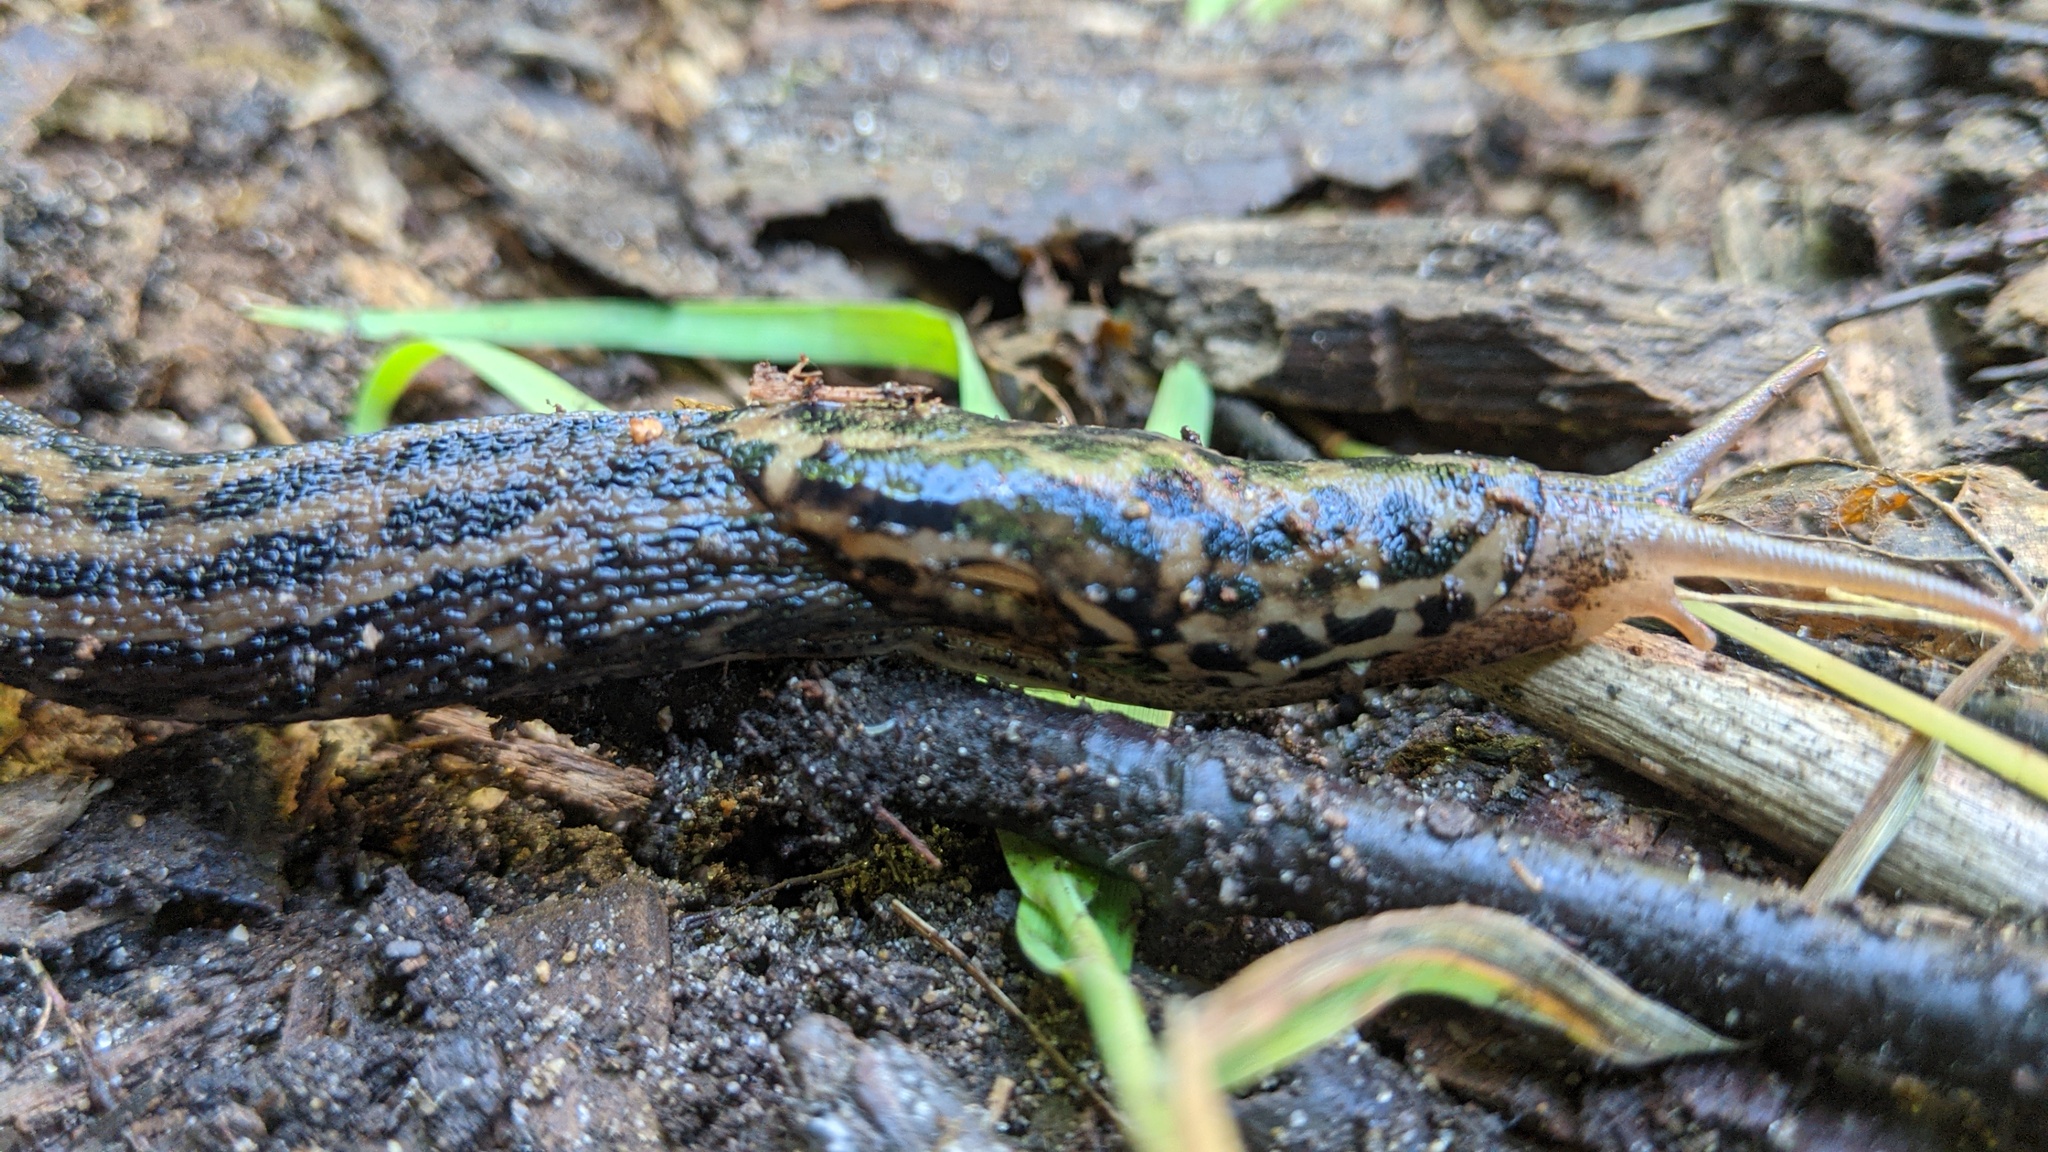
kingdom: Animalia
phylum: Mollusca
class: Gastropoda
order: Stylommatophora
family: Limacidae
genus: Limax
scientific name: Limax maximus
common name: Great grey slug
